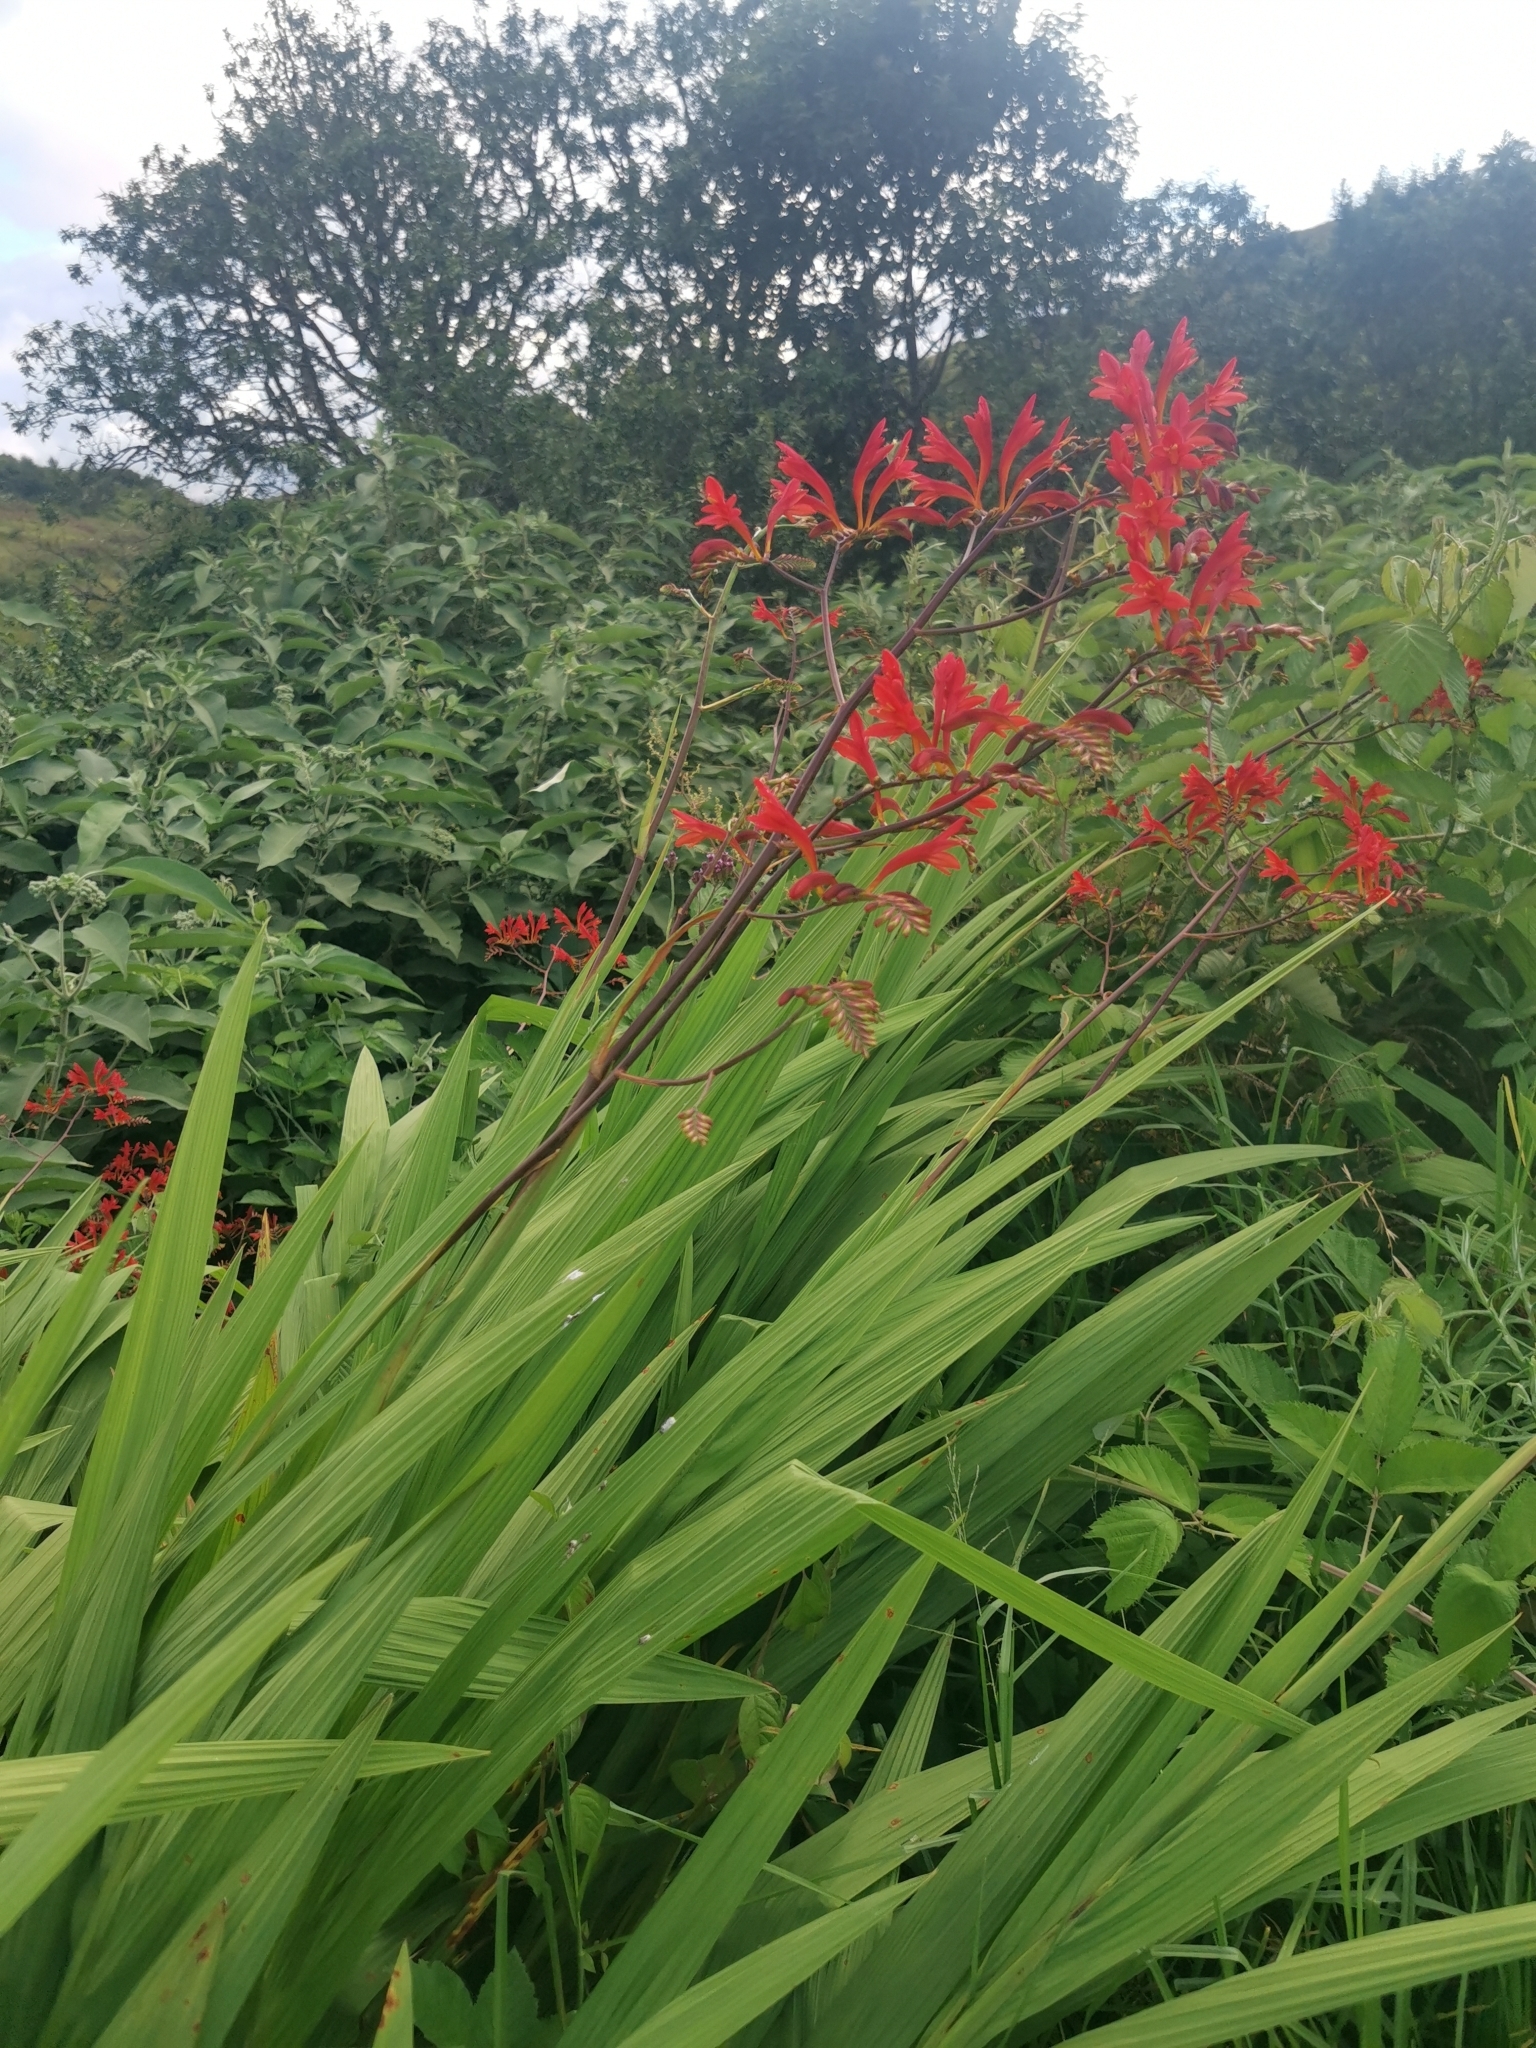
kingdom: Plantae
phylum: Tracheophyta
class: Liliopsida
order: Asparagales
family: Iridaceae
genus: Crocosmia
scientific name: Crocosmia paniculata
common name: Aunt eliza
